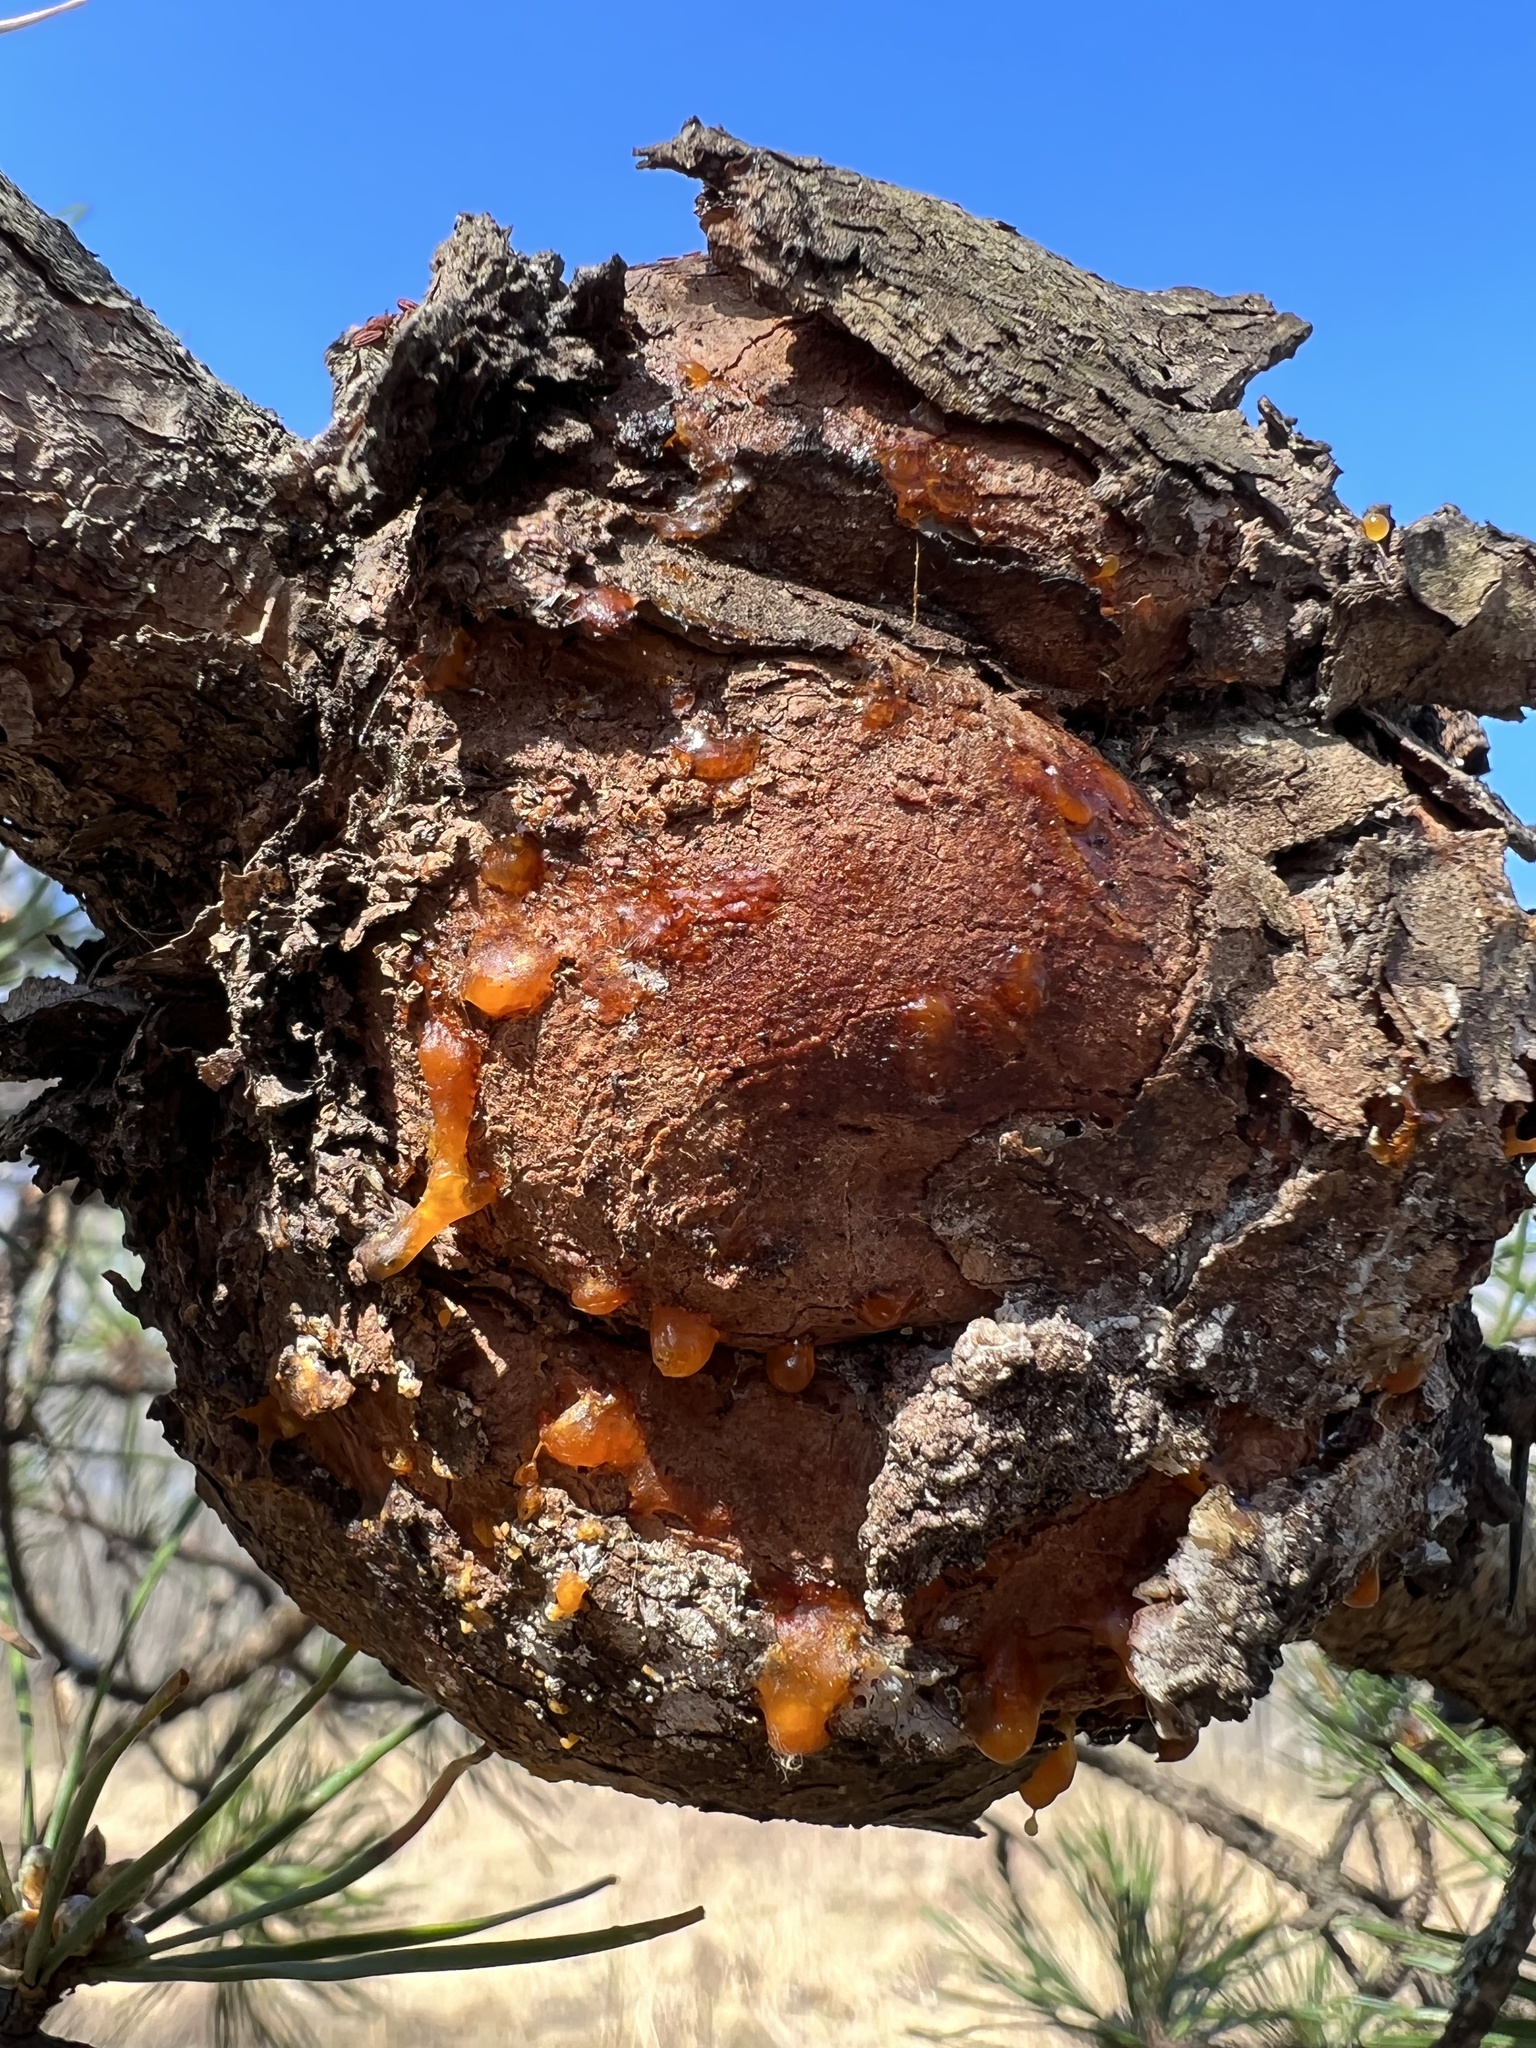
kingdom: Fungi
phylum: Basidiomycota
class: Pucciniomycetes
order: Pucciniales
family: Cronartiaceae
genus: Cronartium
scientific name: Cronartium quercuum
